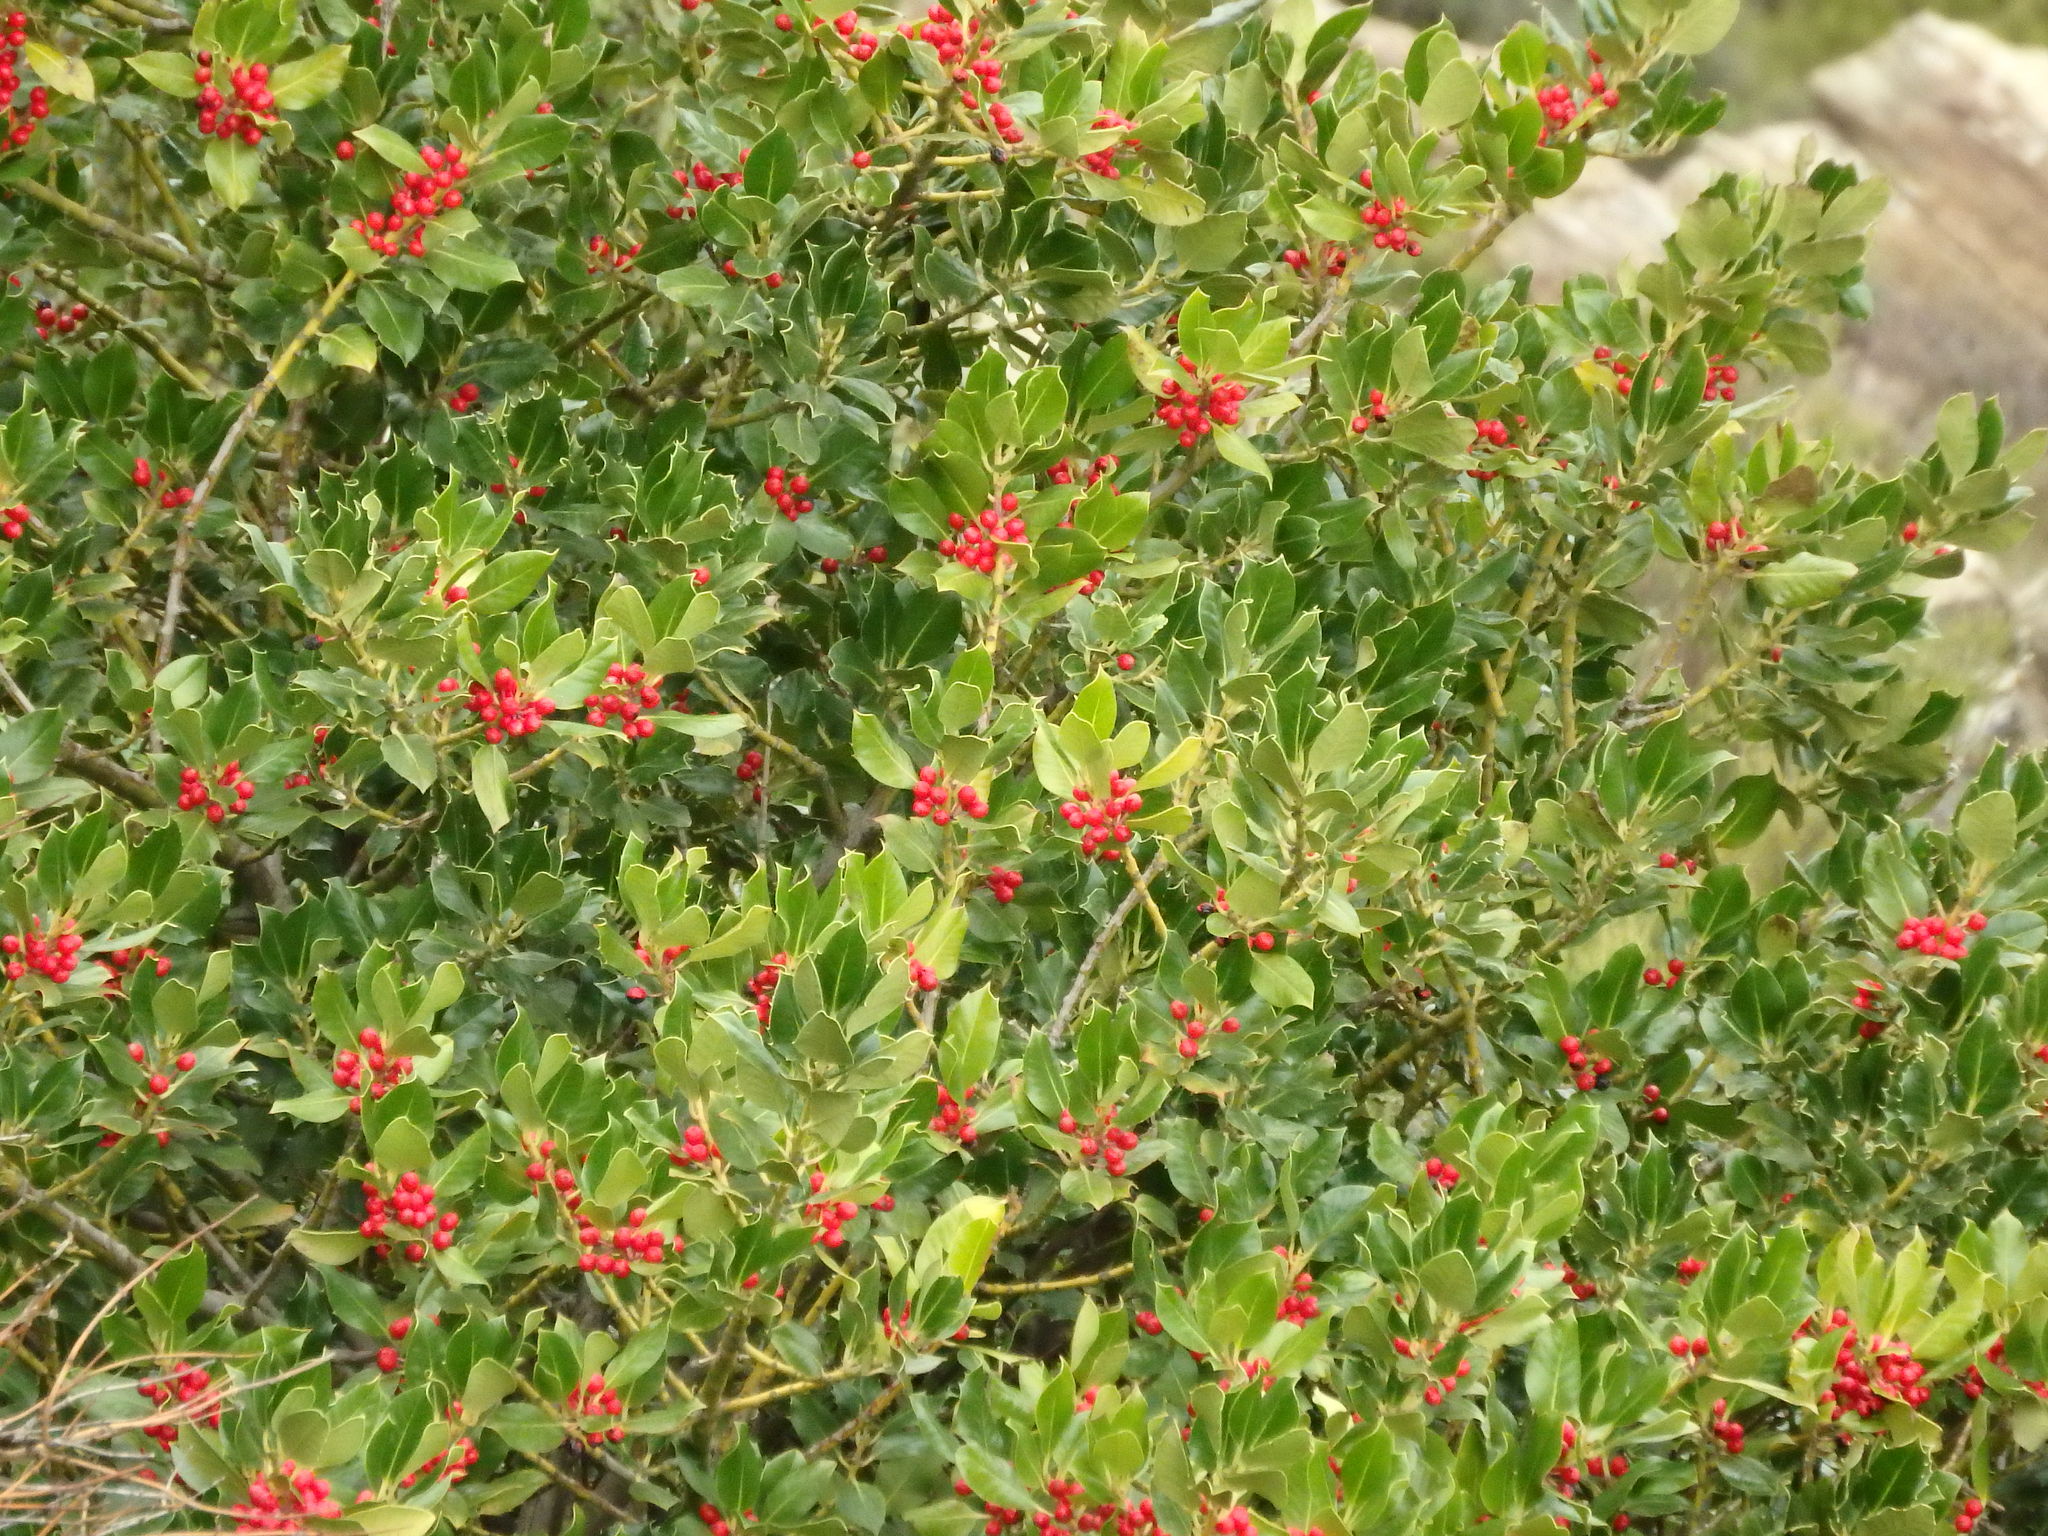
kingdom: Plantae
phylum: Tracheophyta
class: Magnoliopsida
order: Aquifoliales
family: Aquifoliaceae
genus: Ilex
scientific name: Ilex aquifolium
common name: English holly
